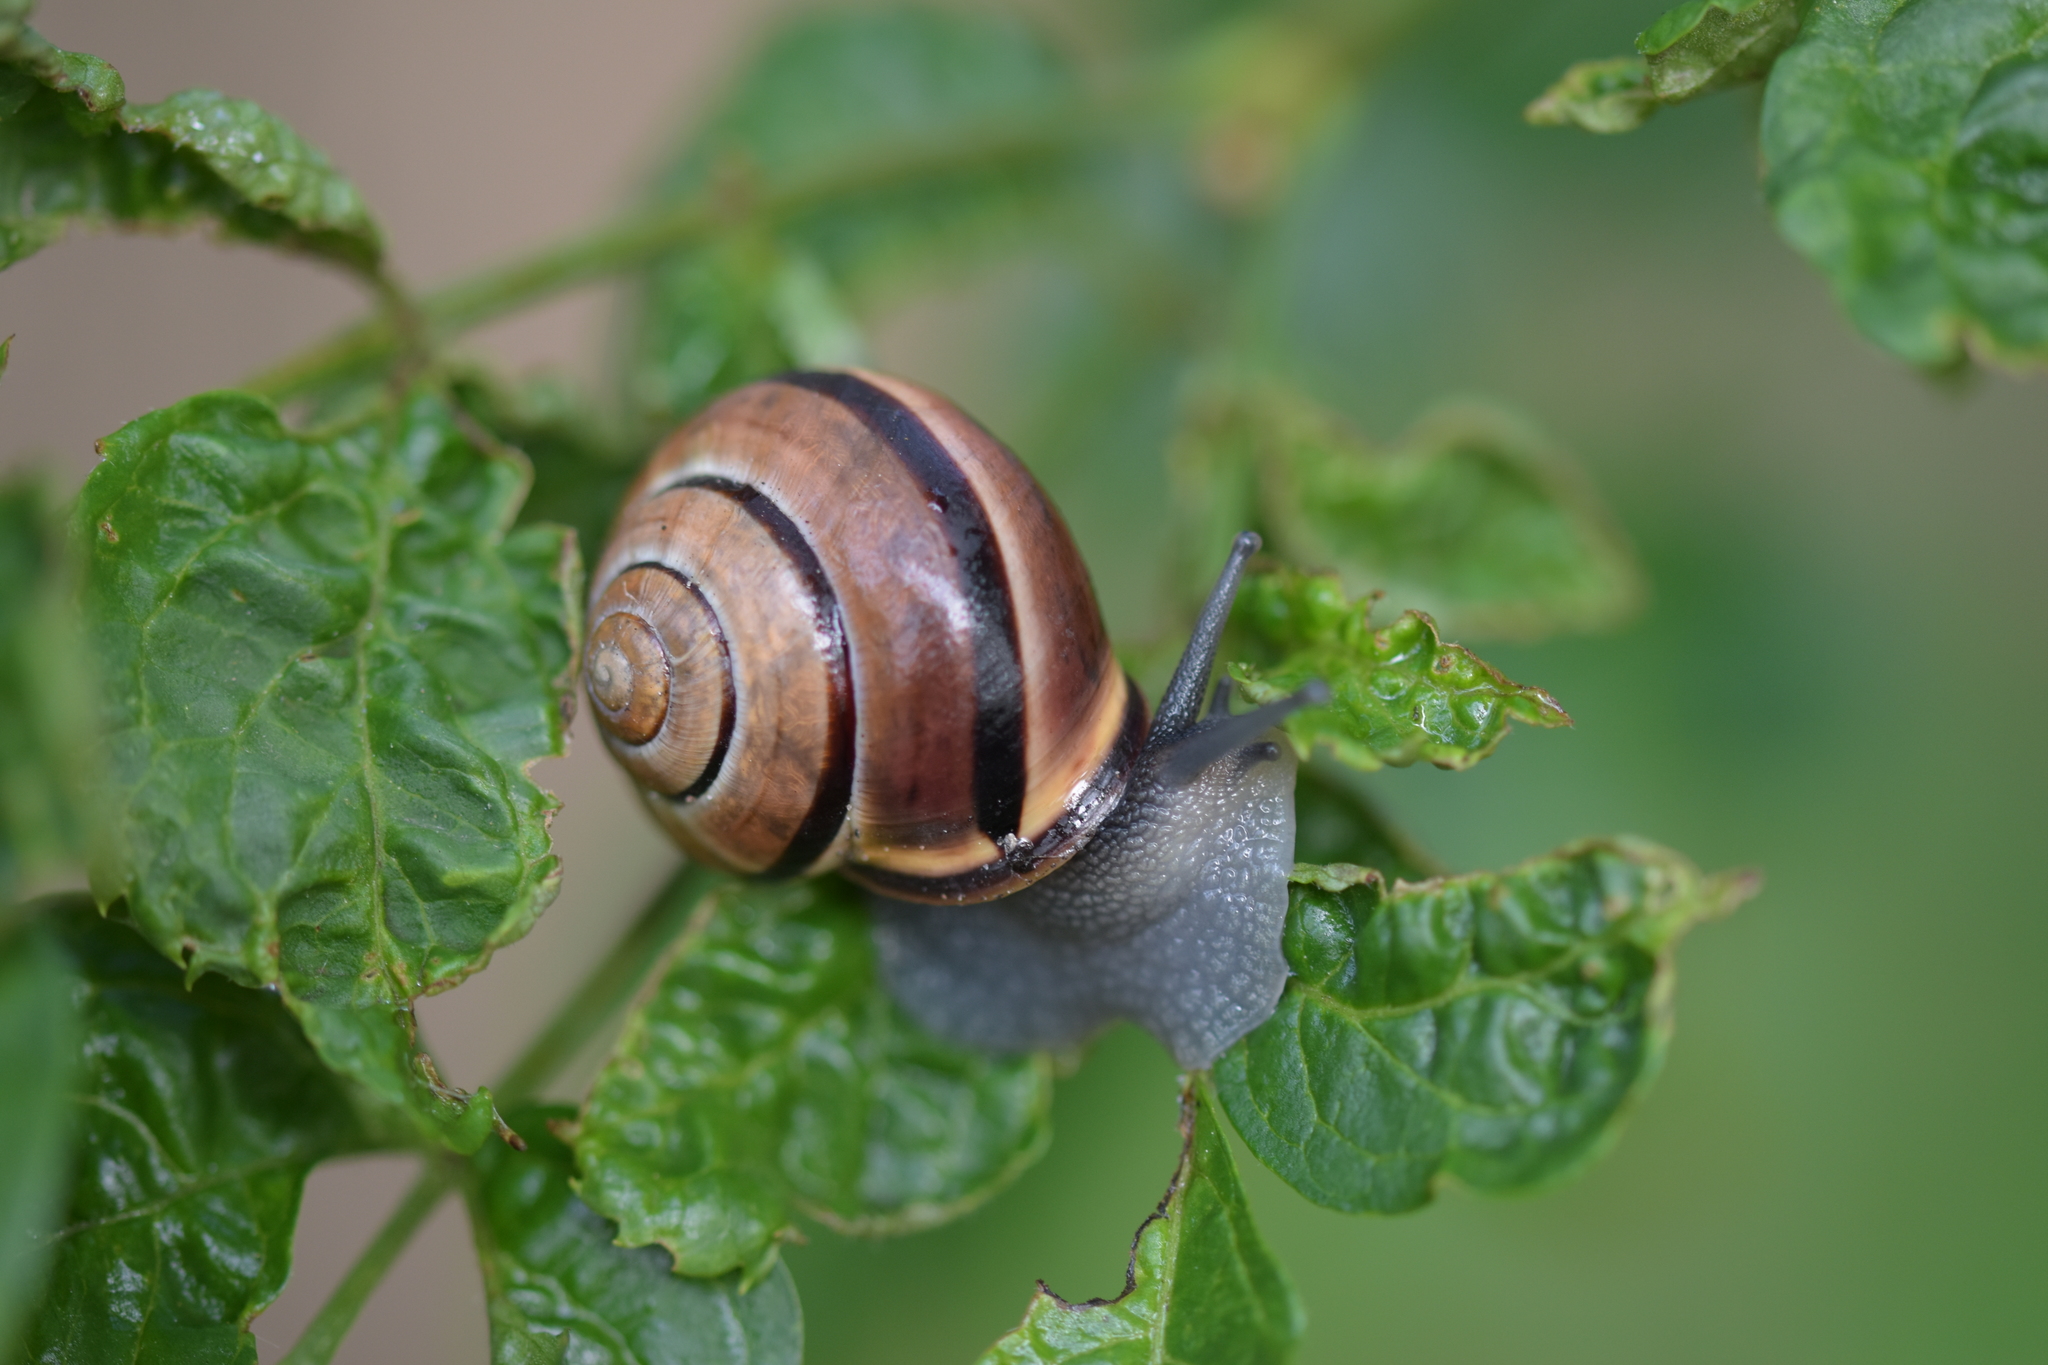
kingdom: Animalia
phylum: Mollusca
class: Gastropoda
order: Stylommatophora
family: Helicidae
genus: Cepaea
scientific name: Cepaea nemoralis
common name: Grovesnail
